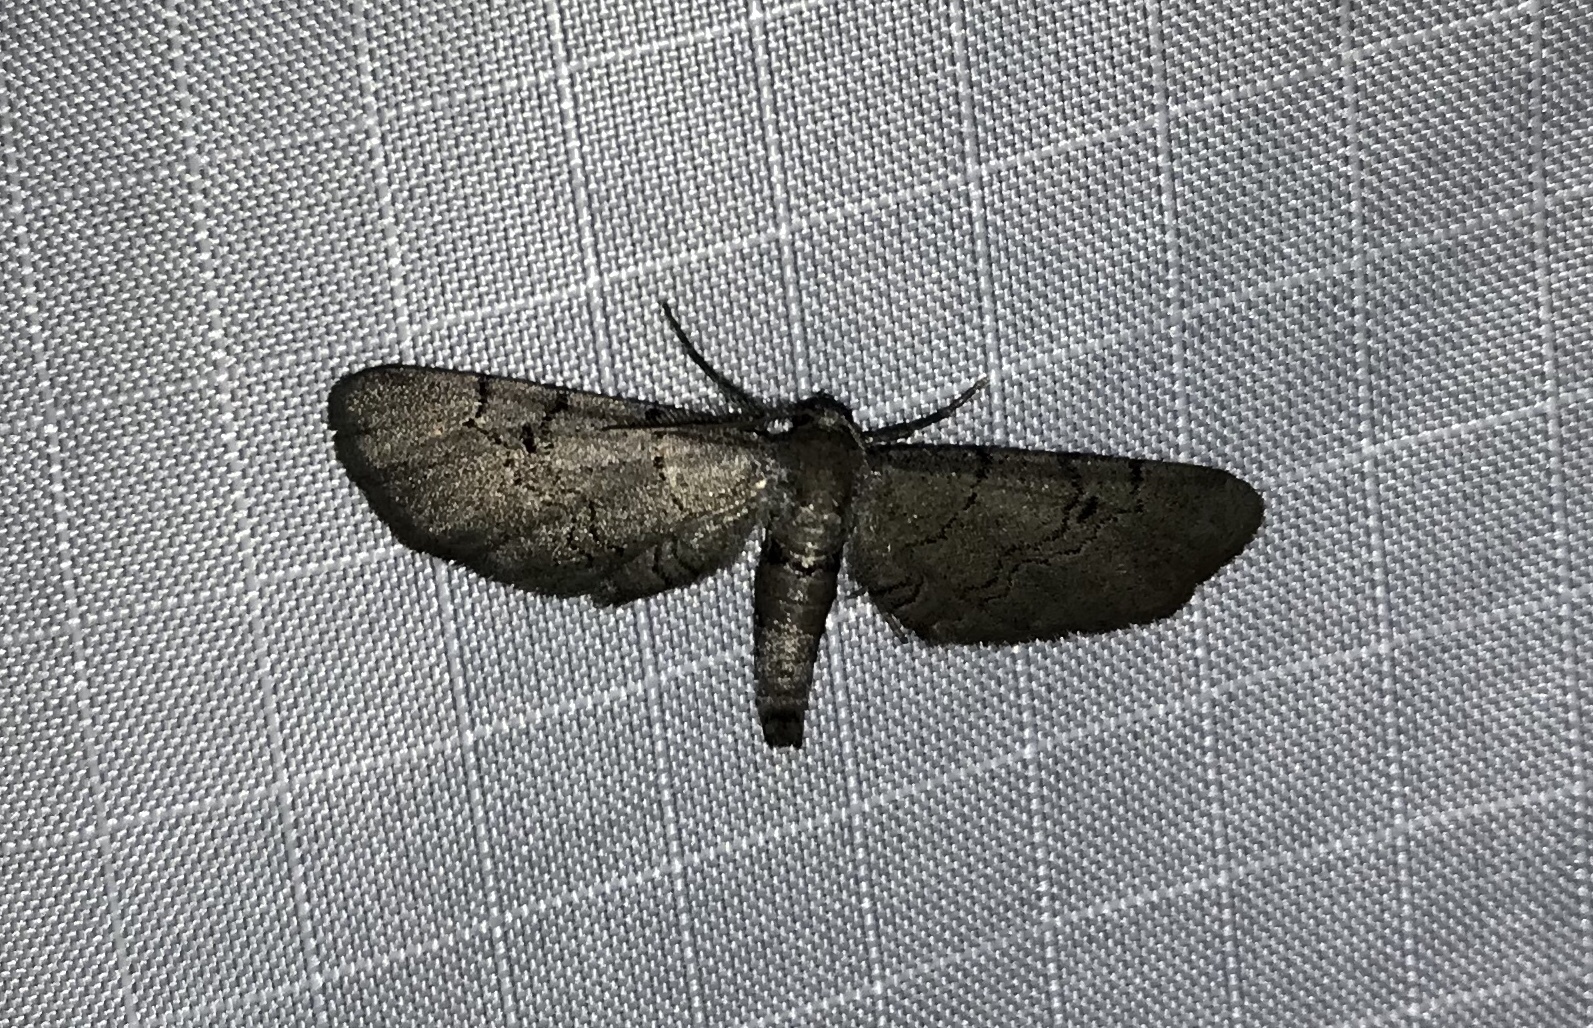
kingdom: Animalia
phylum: Arthropoda
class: Insecta
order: Lepidoptera
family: Geometridae
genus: Exelis
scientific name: Exelis pyrolaria
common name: Fine lined gray
